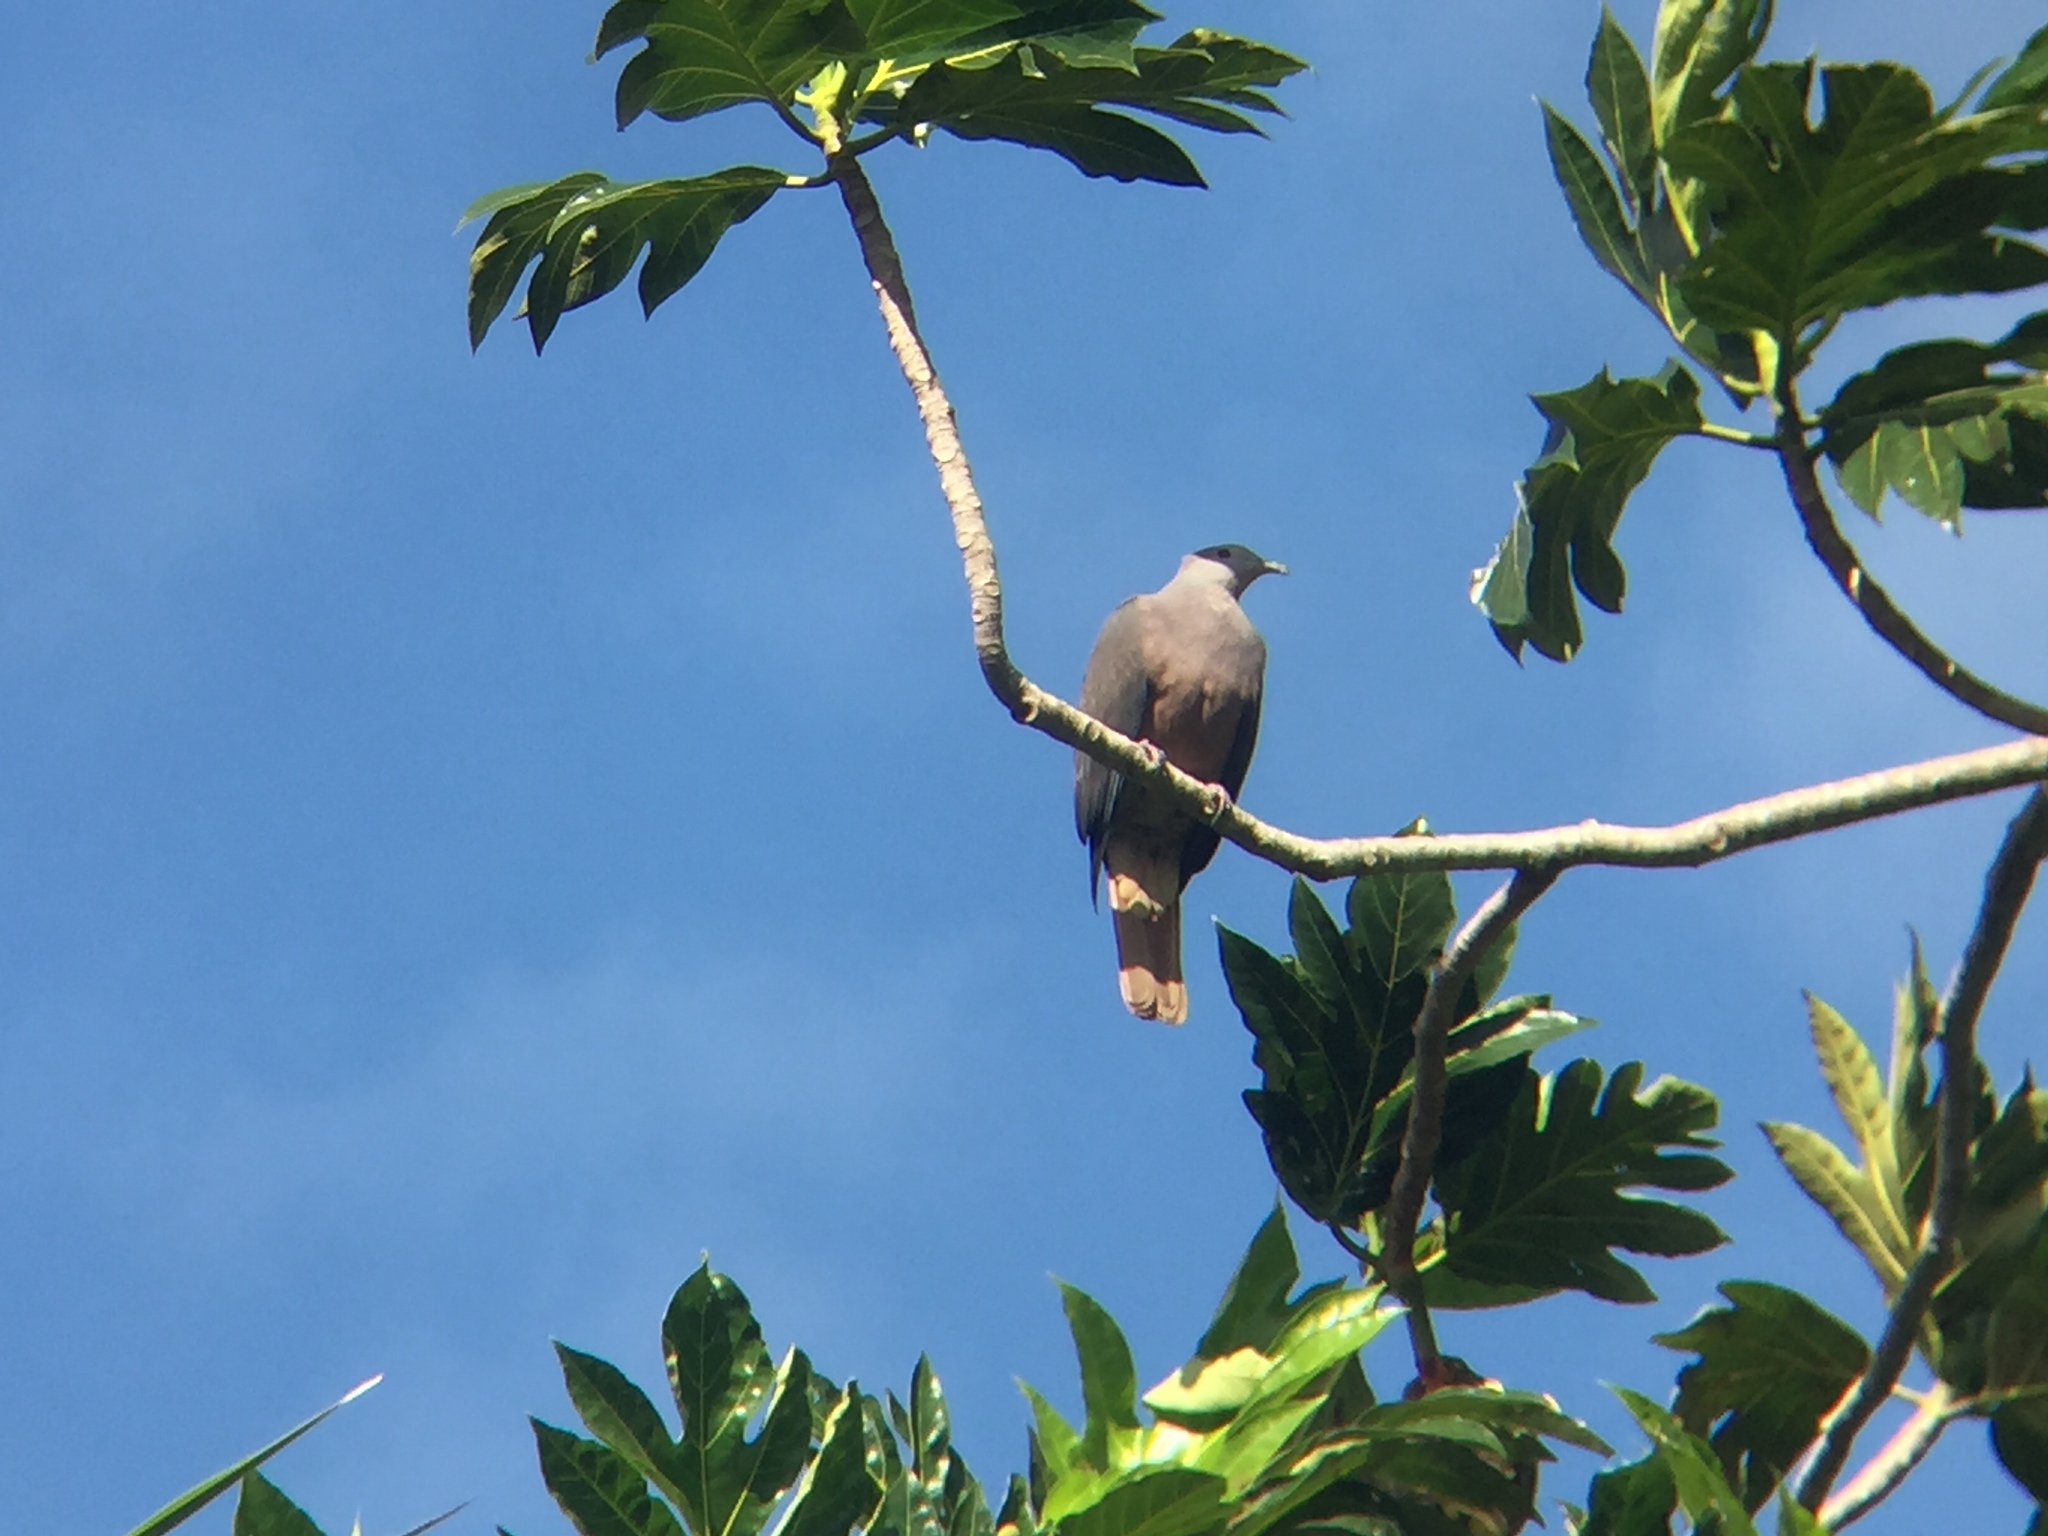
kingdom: Animalia
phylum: Chordata
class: Aves
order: Columbiformes
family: Columbidae
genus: Ducula
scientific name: Ducula latrans
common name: Barking imperial pigeon
